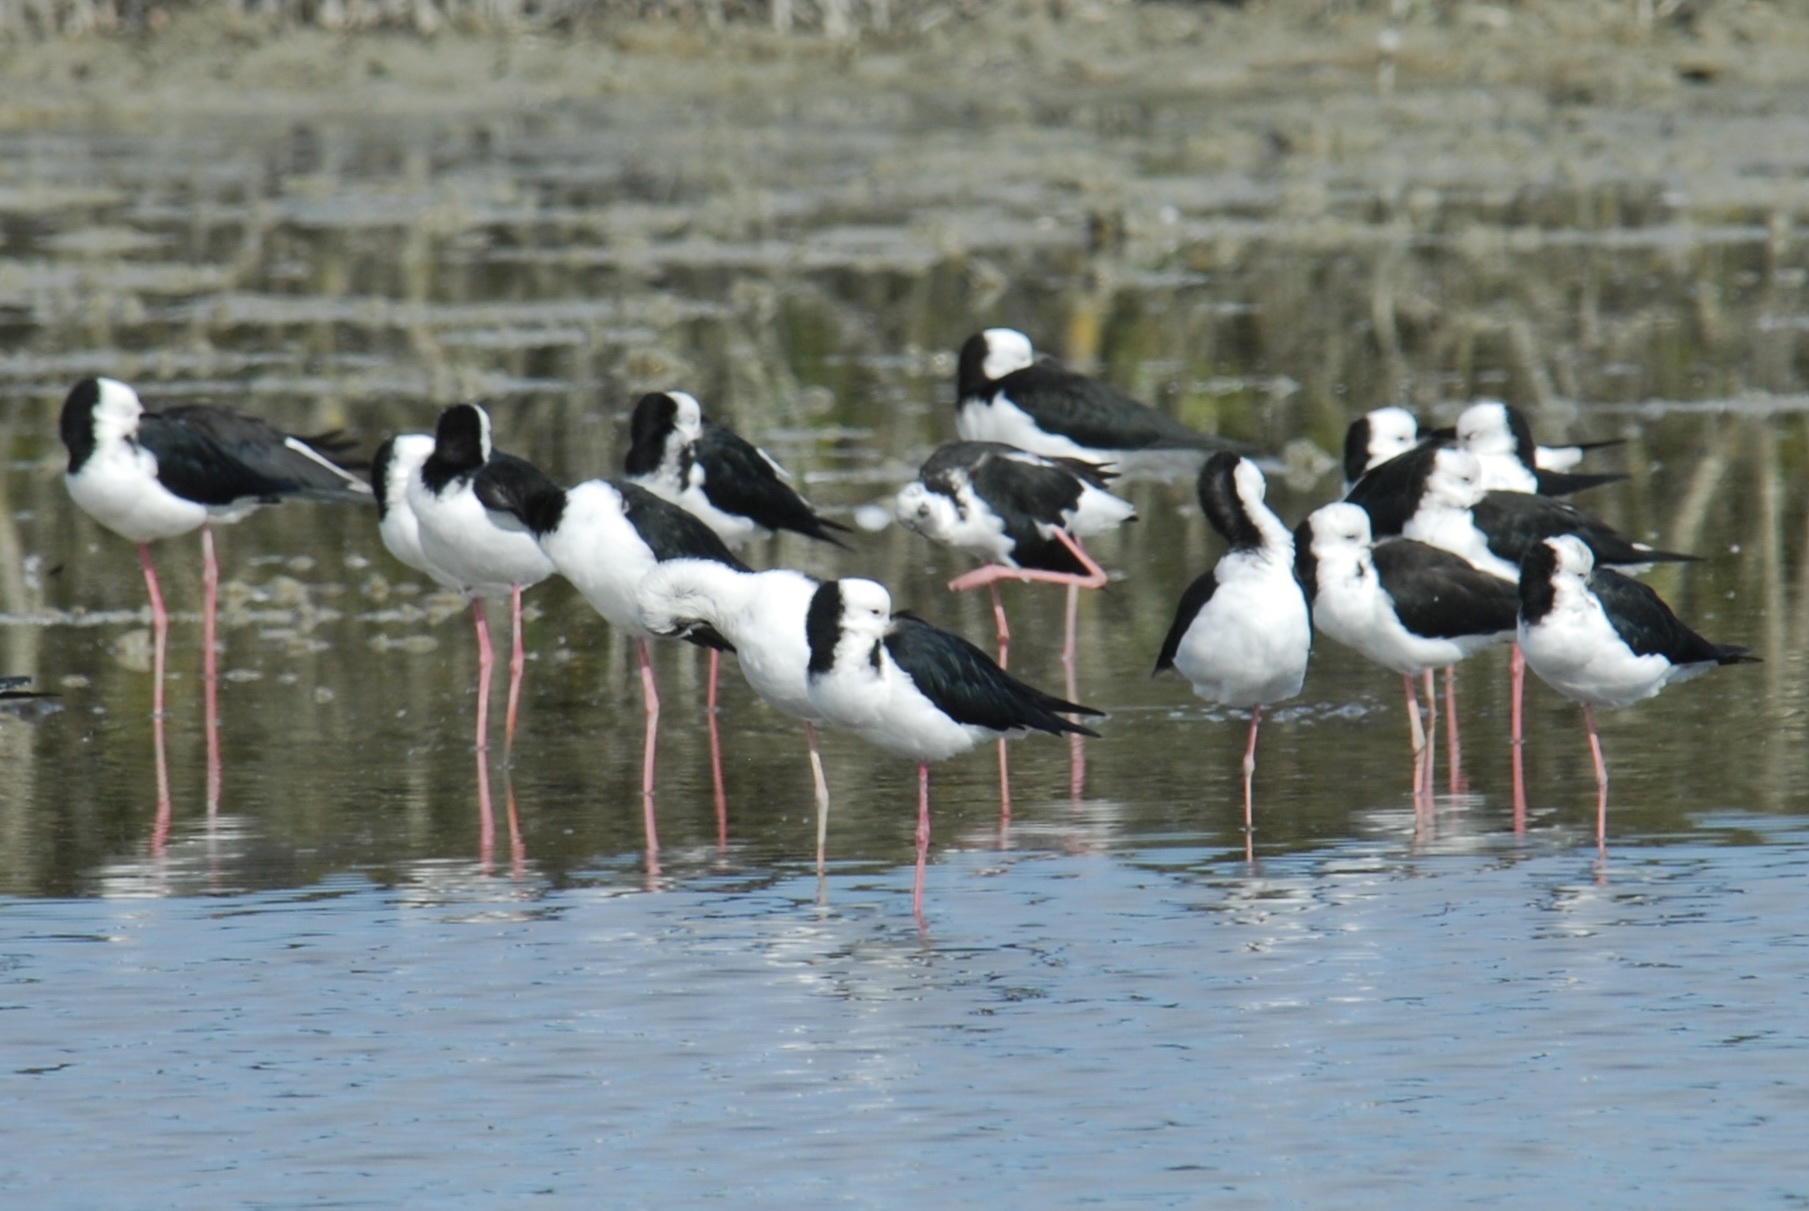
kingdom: Animalia
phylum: Chordata
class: Aves
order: Charadriiformes
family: Recurvirostridae
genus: Himantopus
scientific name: Himantopus leucocephalus
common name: White-headed stilt
